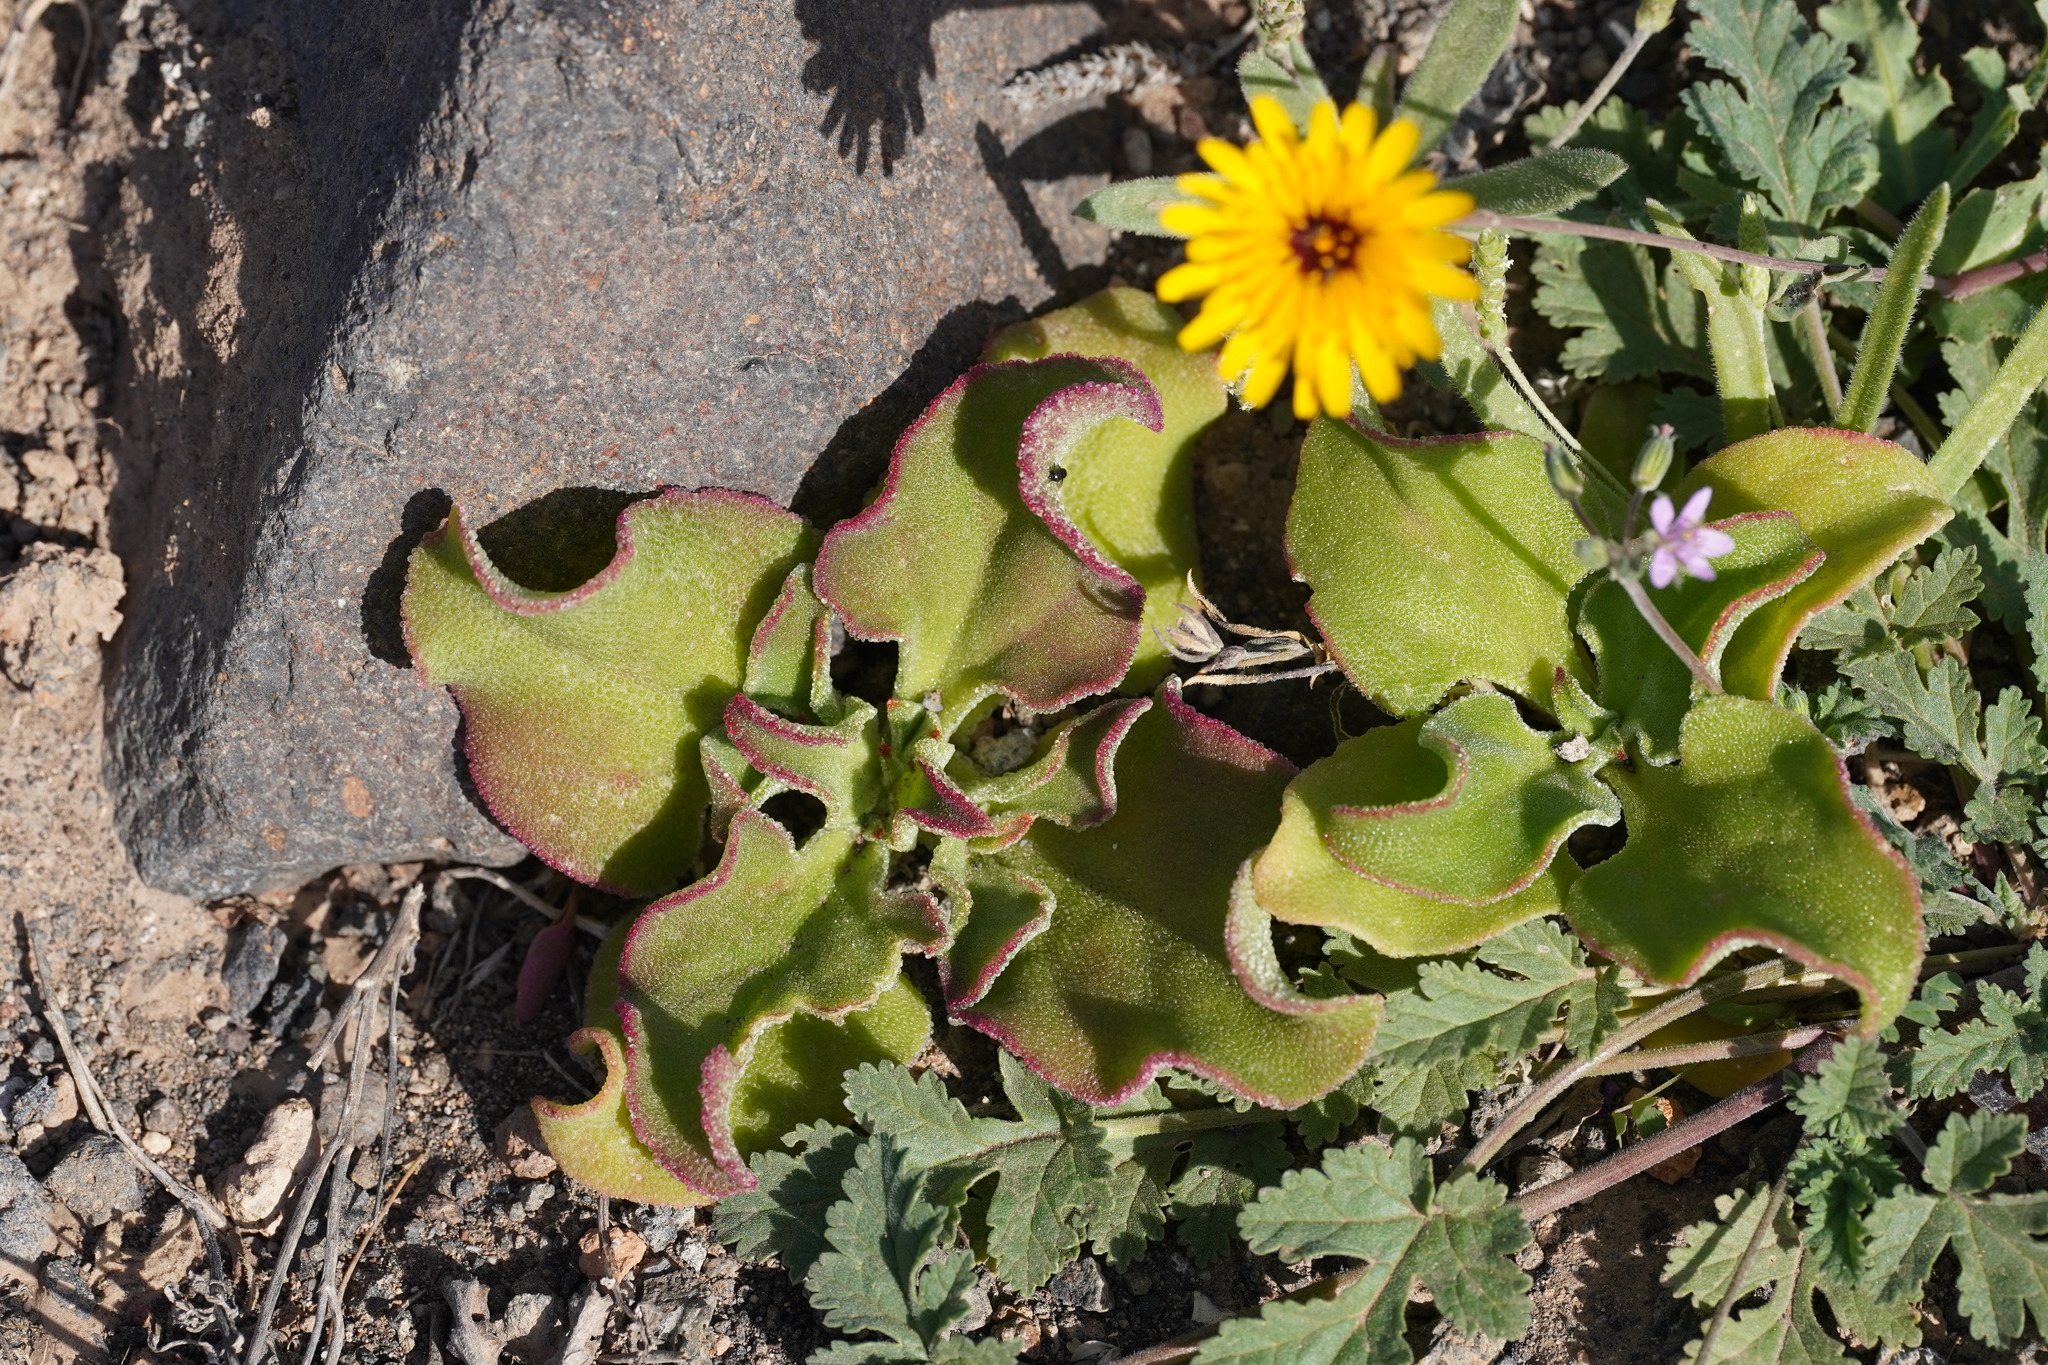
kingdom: Plantae
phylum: Tracheophyta
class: Magnoliopsida
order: Caryophyllales
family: Aizoaceae
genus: Mesembryanthemum
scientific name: Mesembryanthemum crystallinum
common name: Common iceplant
